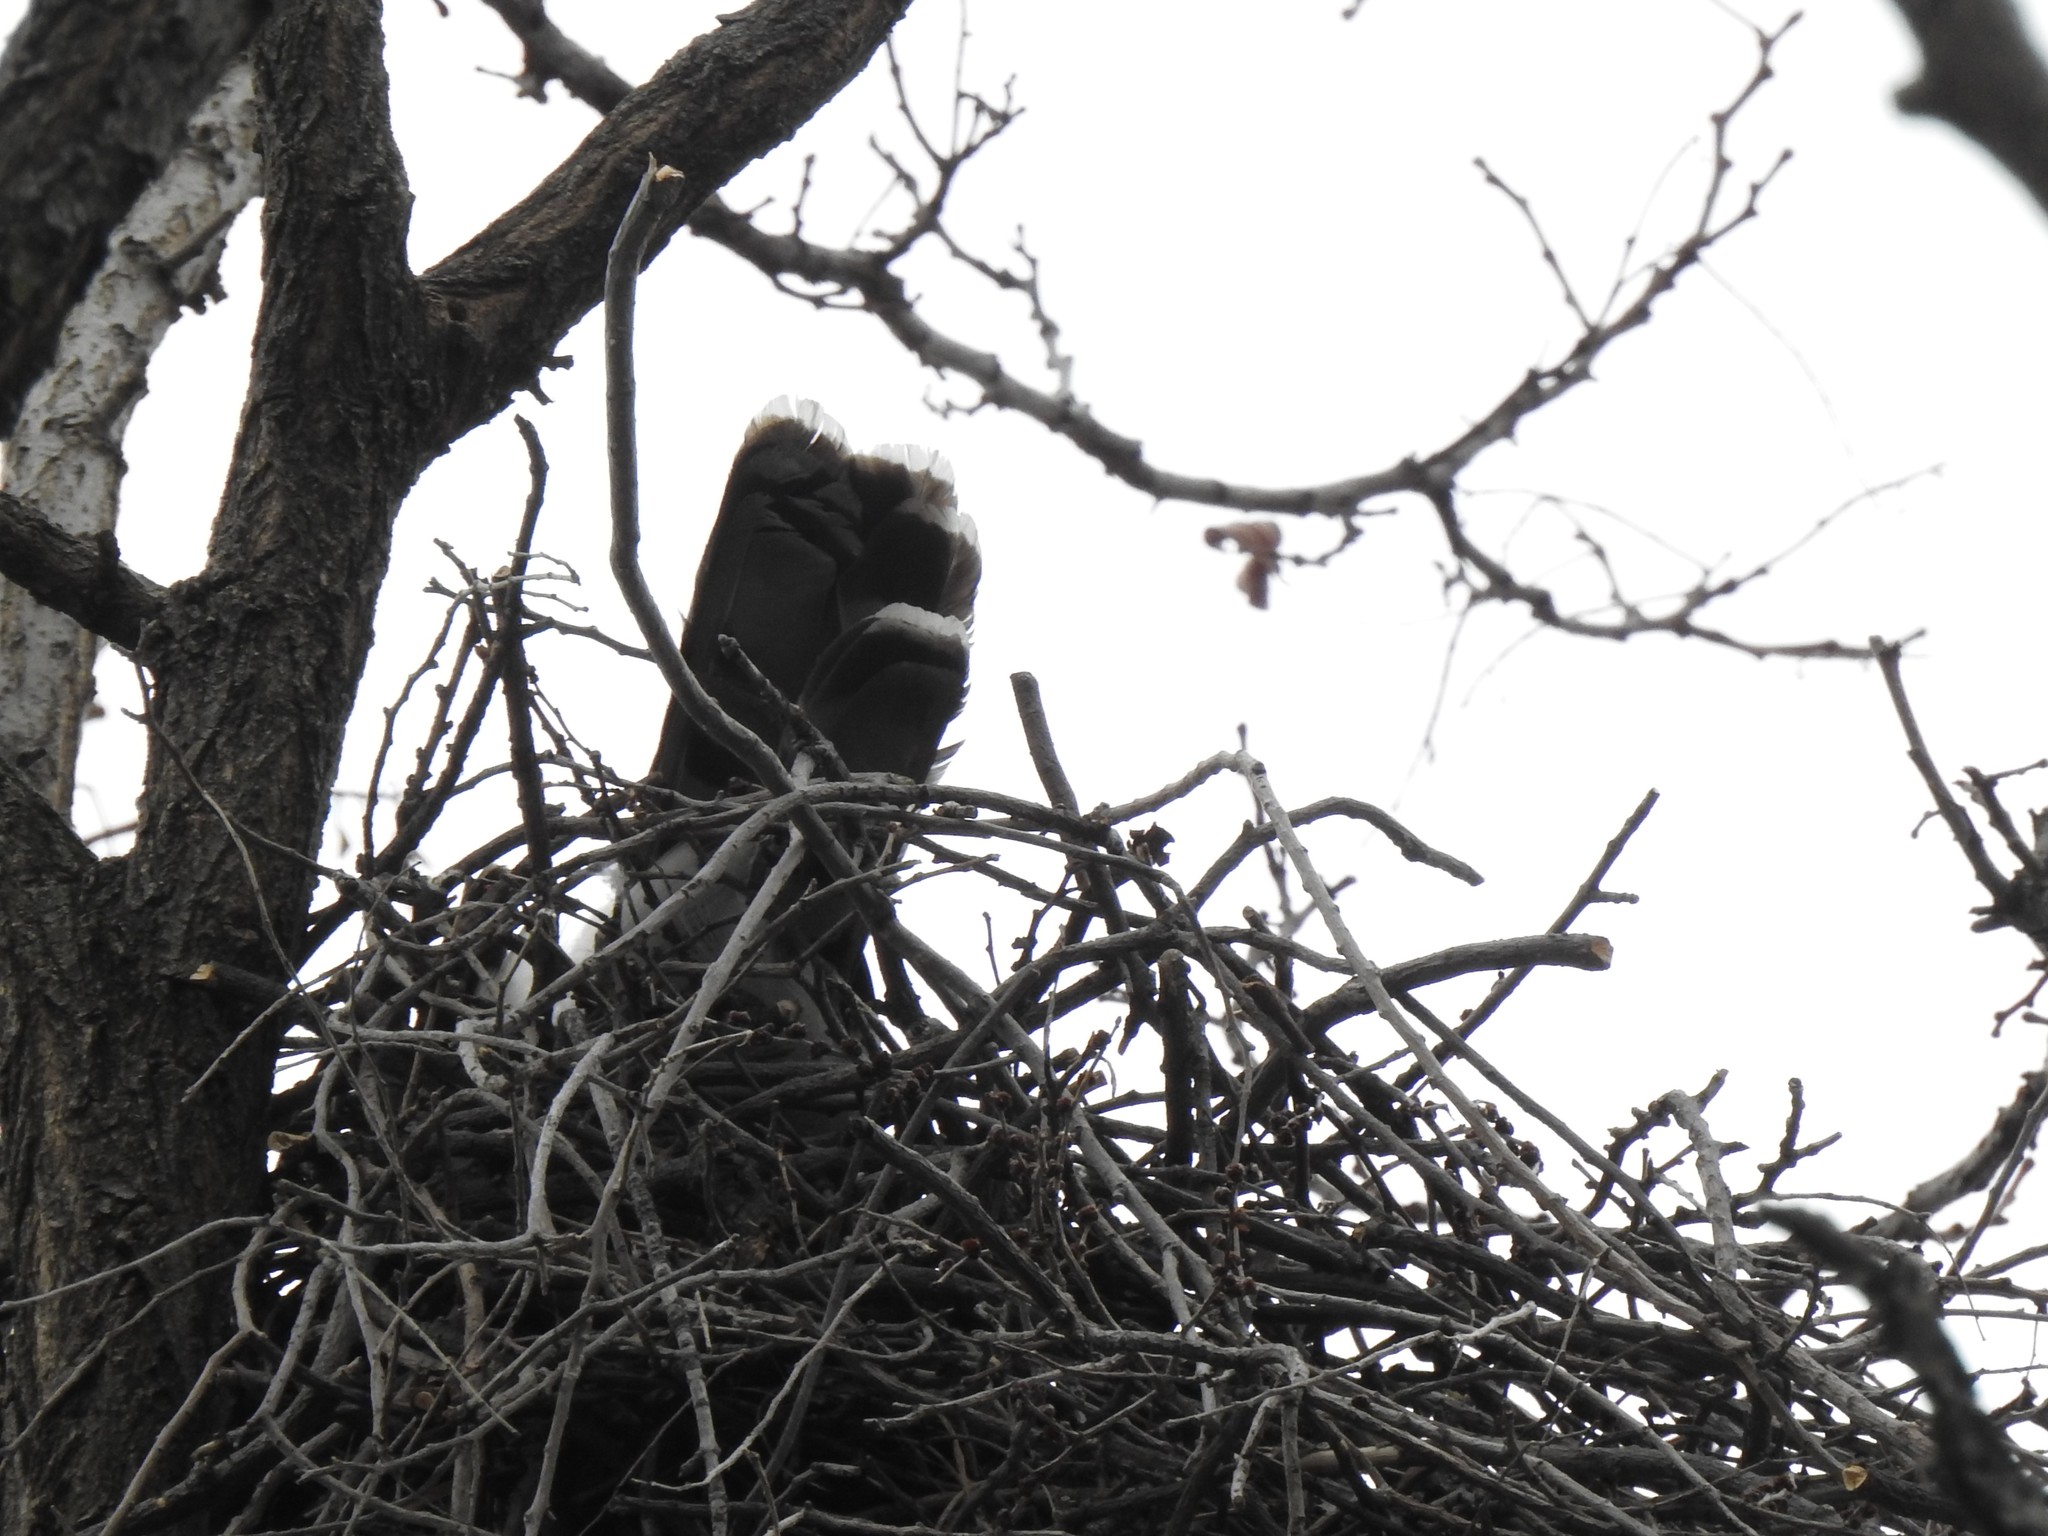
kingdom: Animalia
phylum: Chordata
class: Aves
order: Accipitriformes
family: Accipitridae
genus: Accipiter
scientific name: Accipiter cooperii
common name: Cooper's hawk
